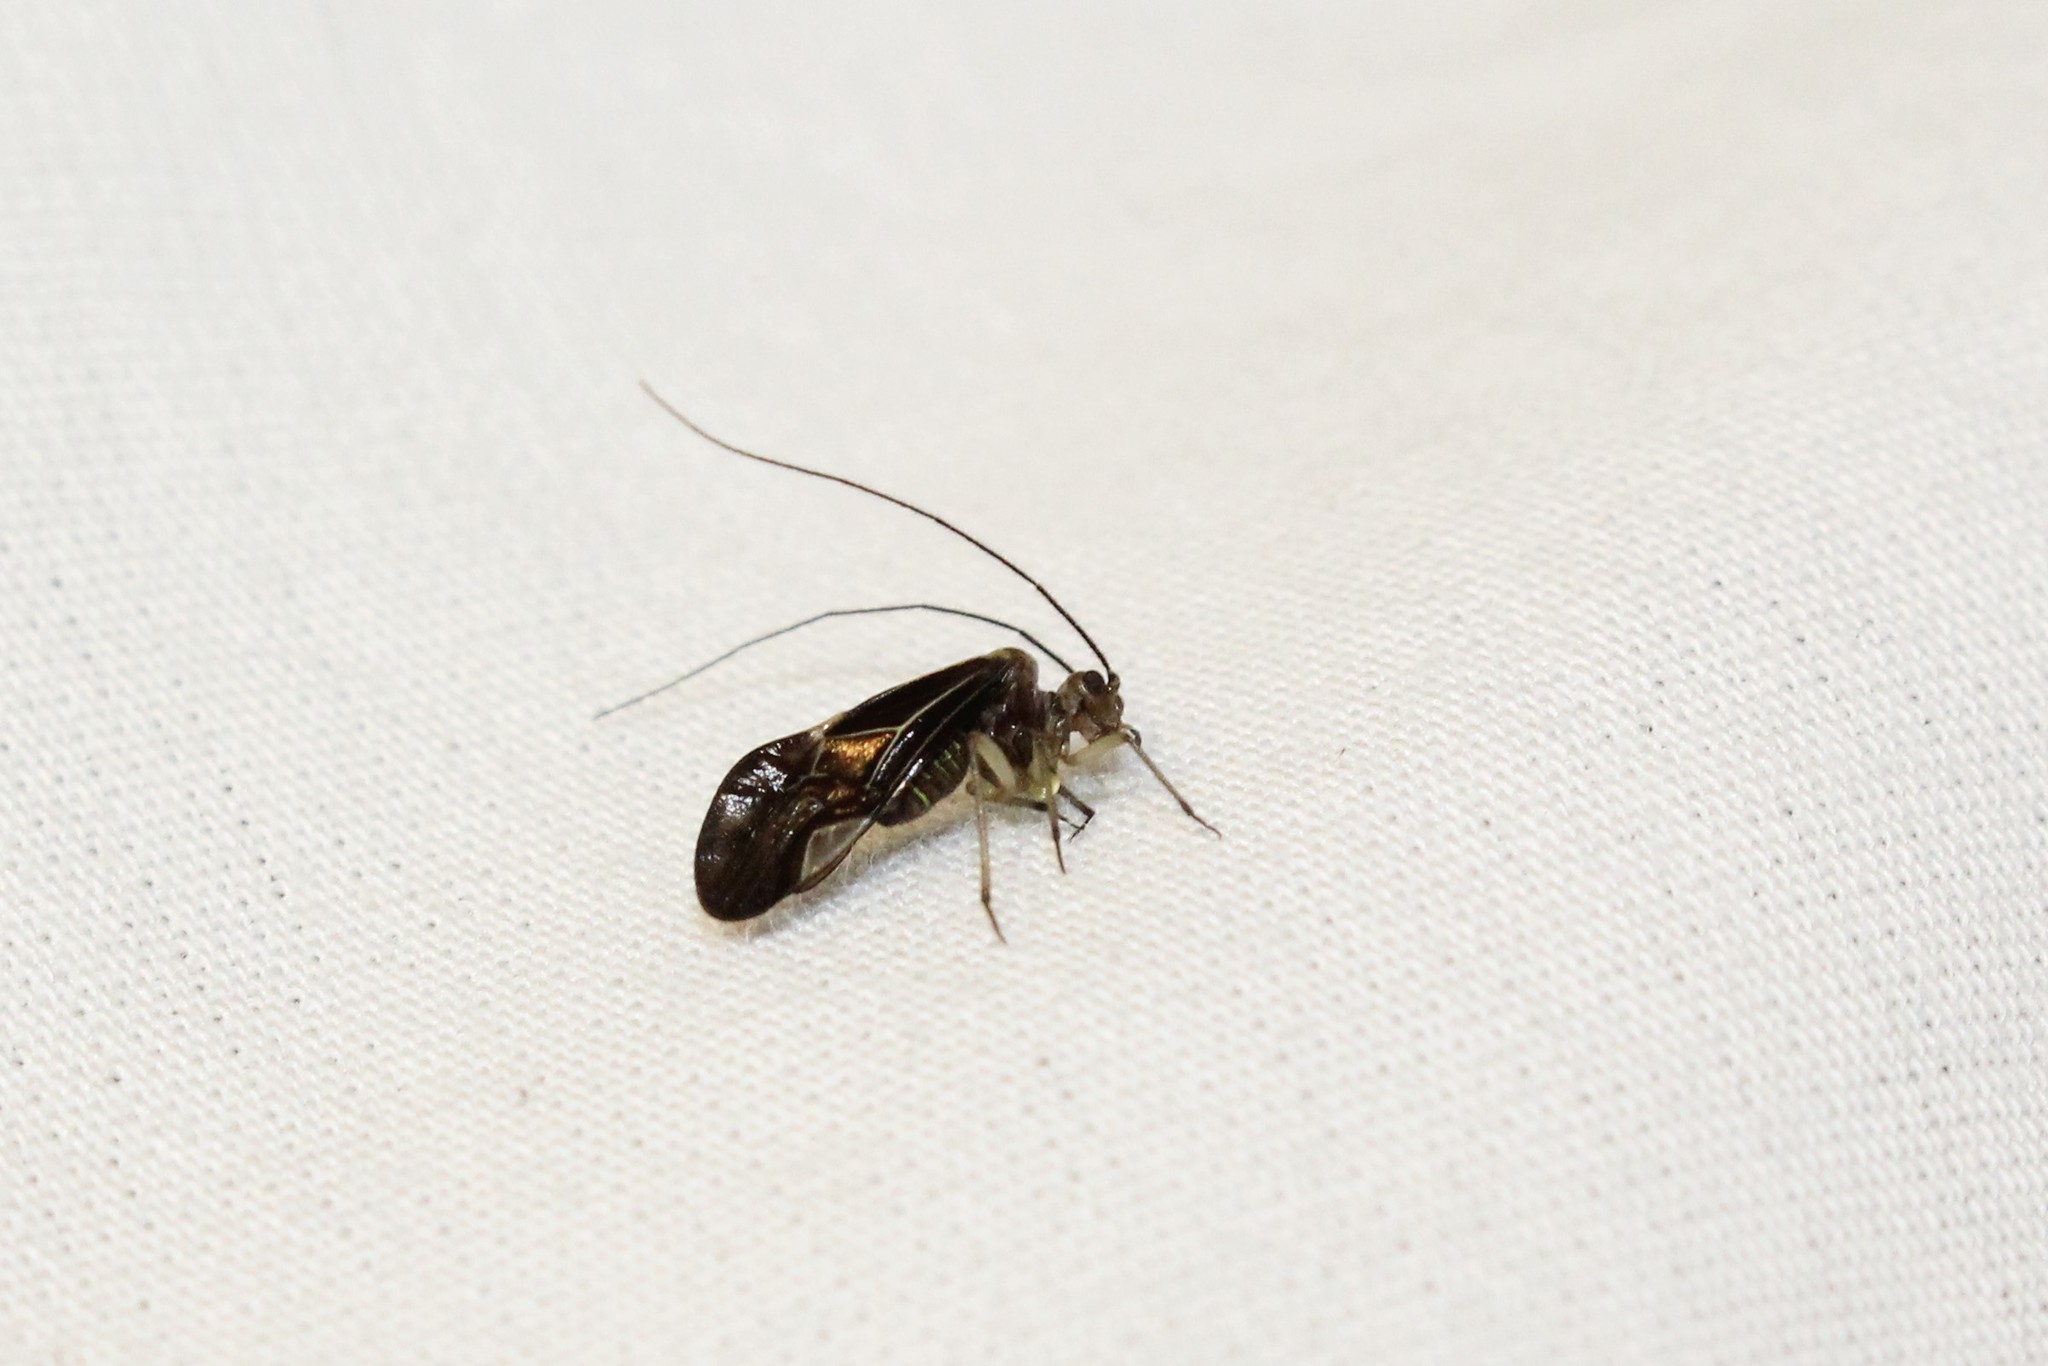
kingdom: Animalia
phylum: Arthropoda
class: Insecta
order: Psocodea
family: Psocidae
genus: Cerastipsocus
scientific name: Cerastipsocus venosus
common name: Tree cattle
